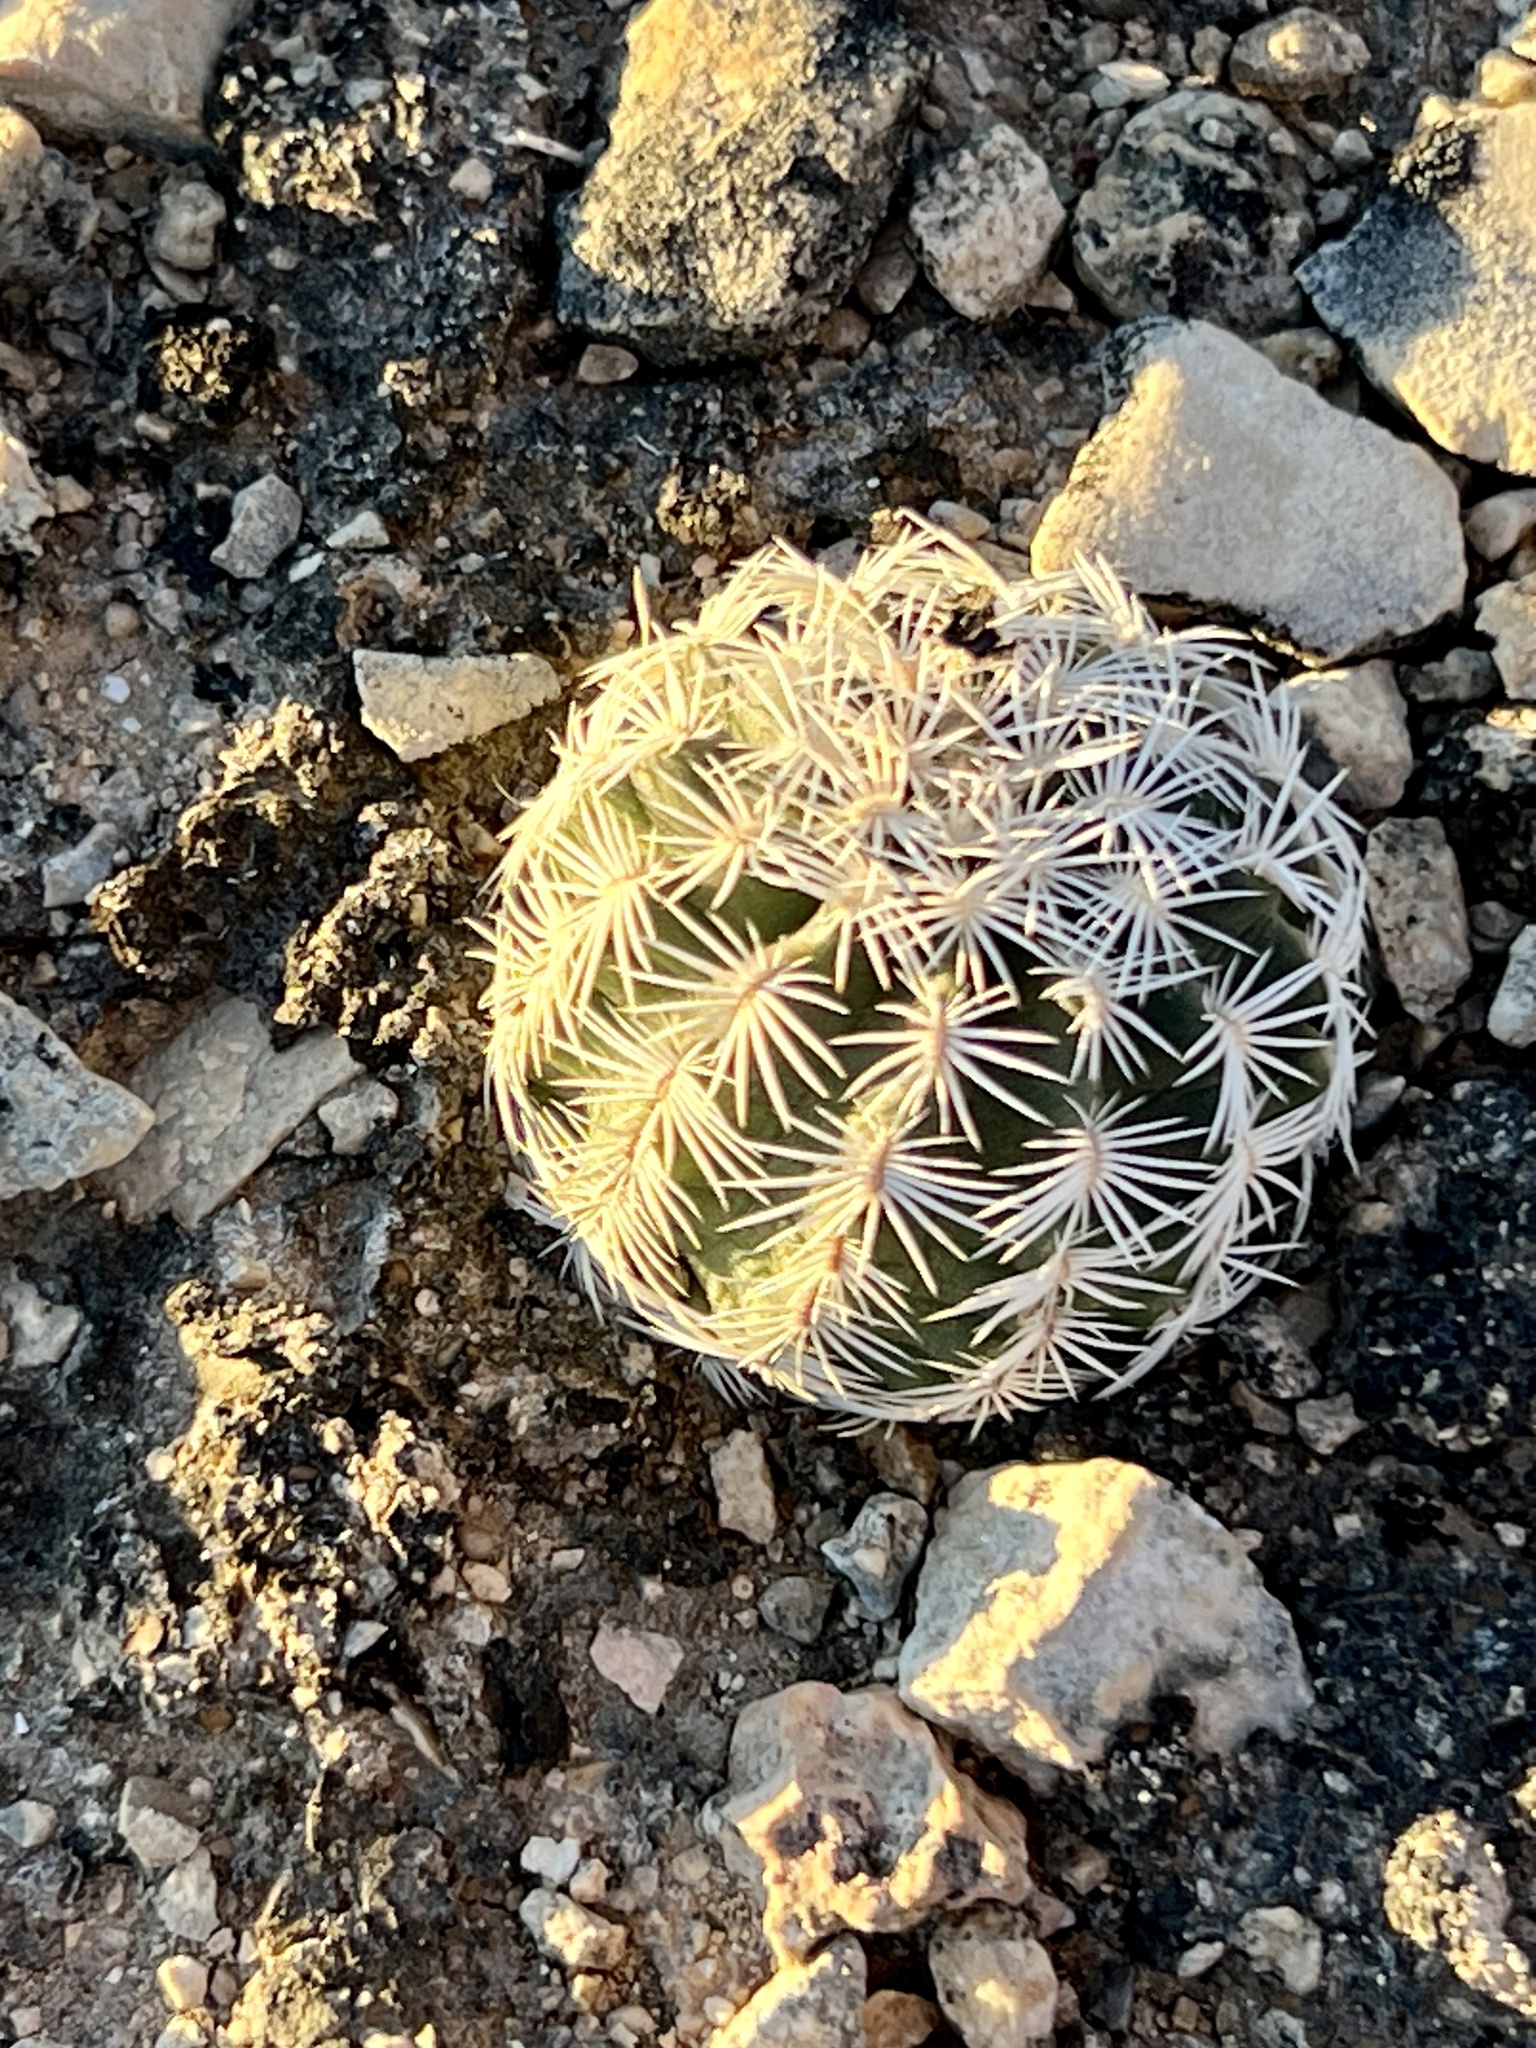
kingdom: Plantae
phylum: Tracheophyta
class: Magnoliopsida
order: Caryophyllales
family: Cactaceae
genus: Echinocereus
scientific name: Echinocereus reichenbachii
